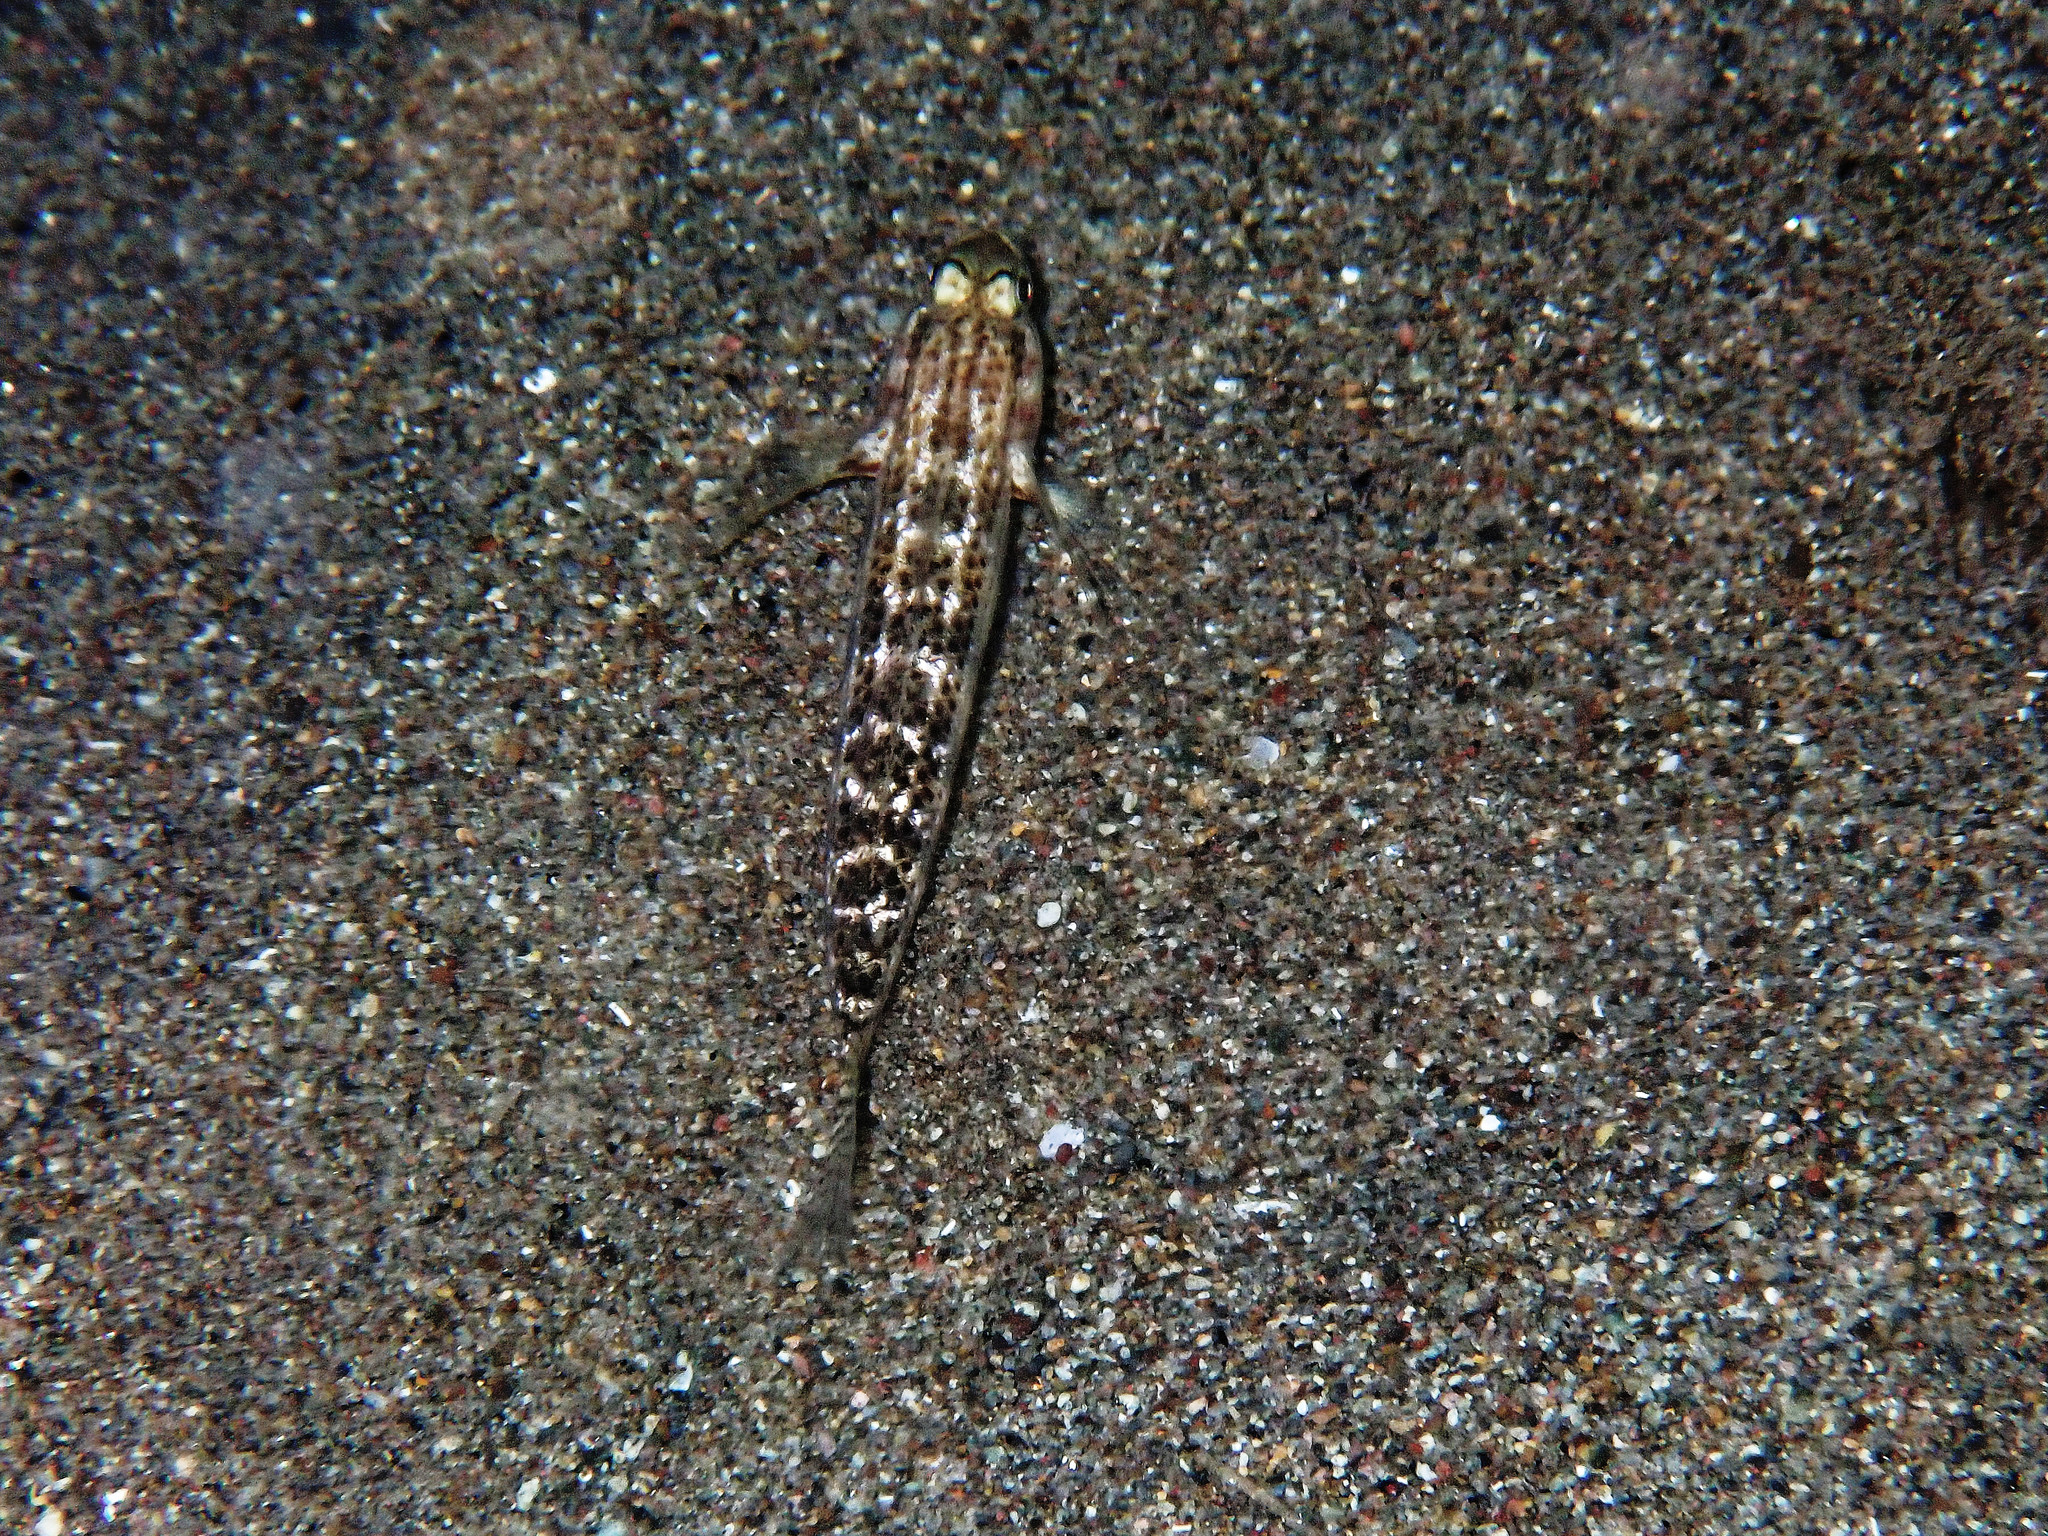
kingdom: Animalia
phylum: Chordata
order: Perciformes
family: Gobiidae
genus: Gnatholepis
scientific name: Gnatholepis thompsoni
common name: Goldspot goby
